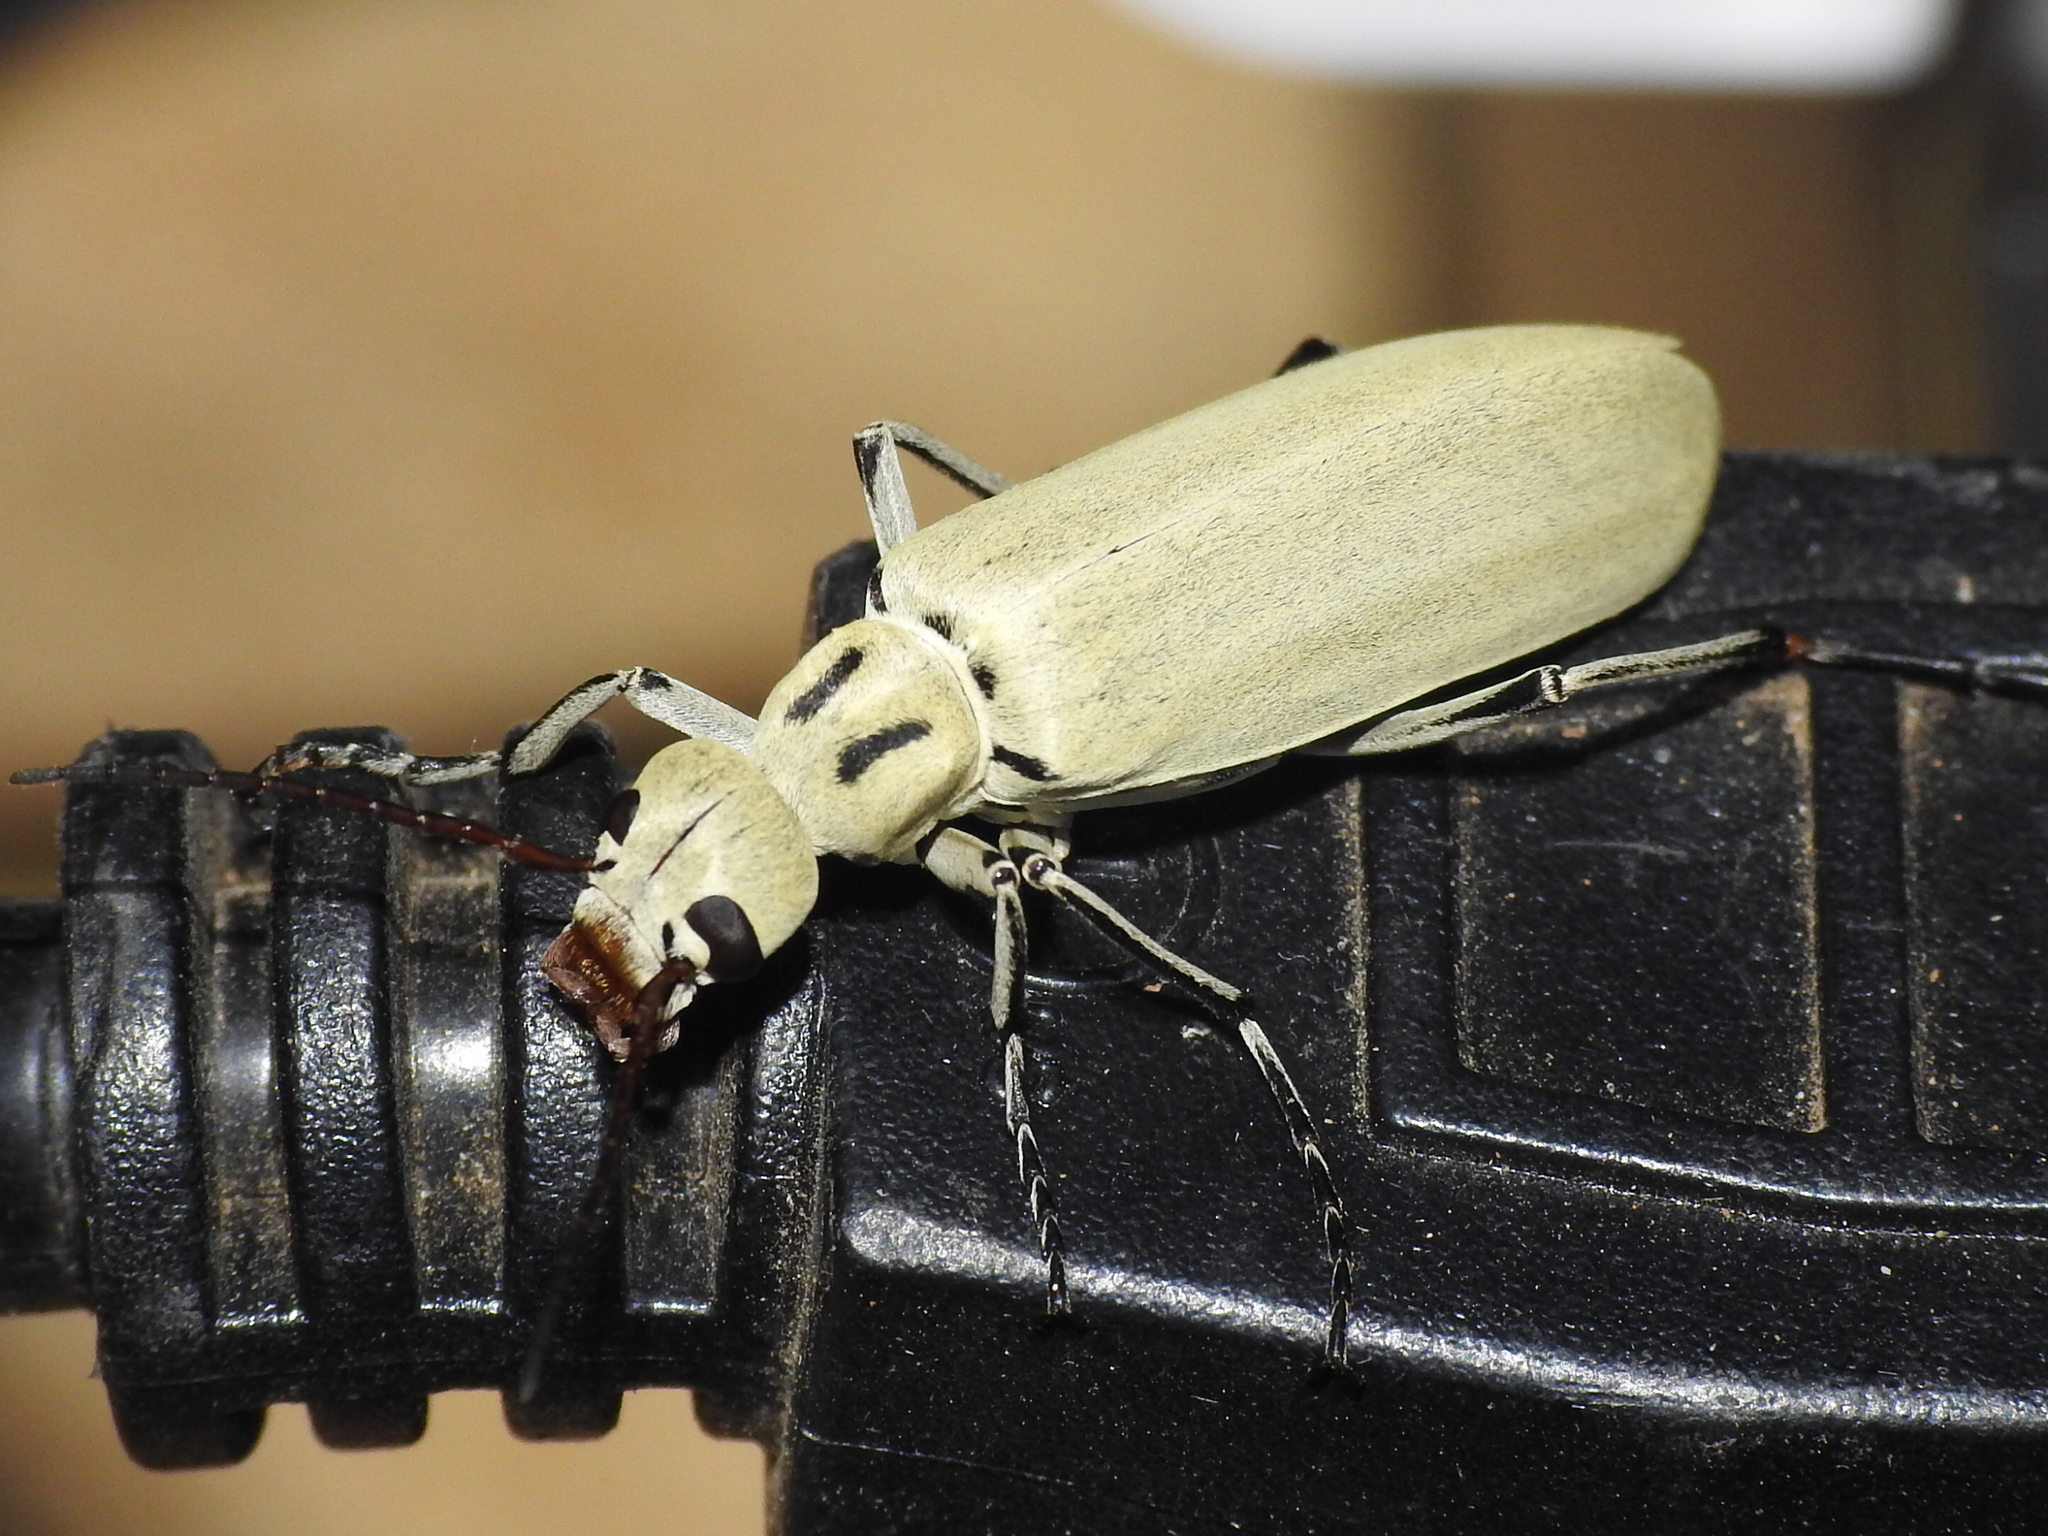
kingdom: Animalia
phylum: Arthropoda
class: Insecta
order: Coleoptera
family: Meloidae
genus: Epicauta
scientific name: Epicauta albida
